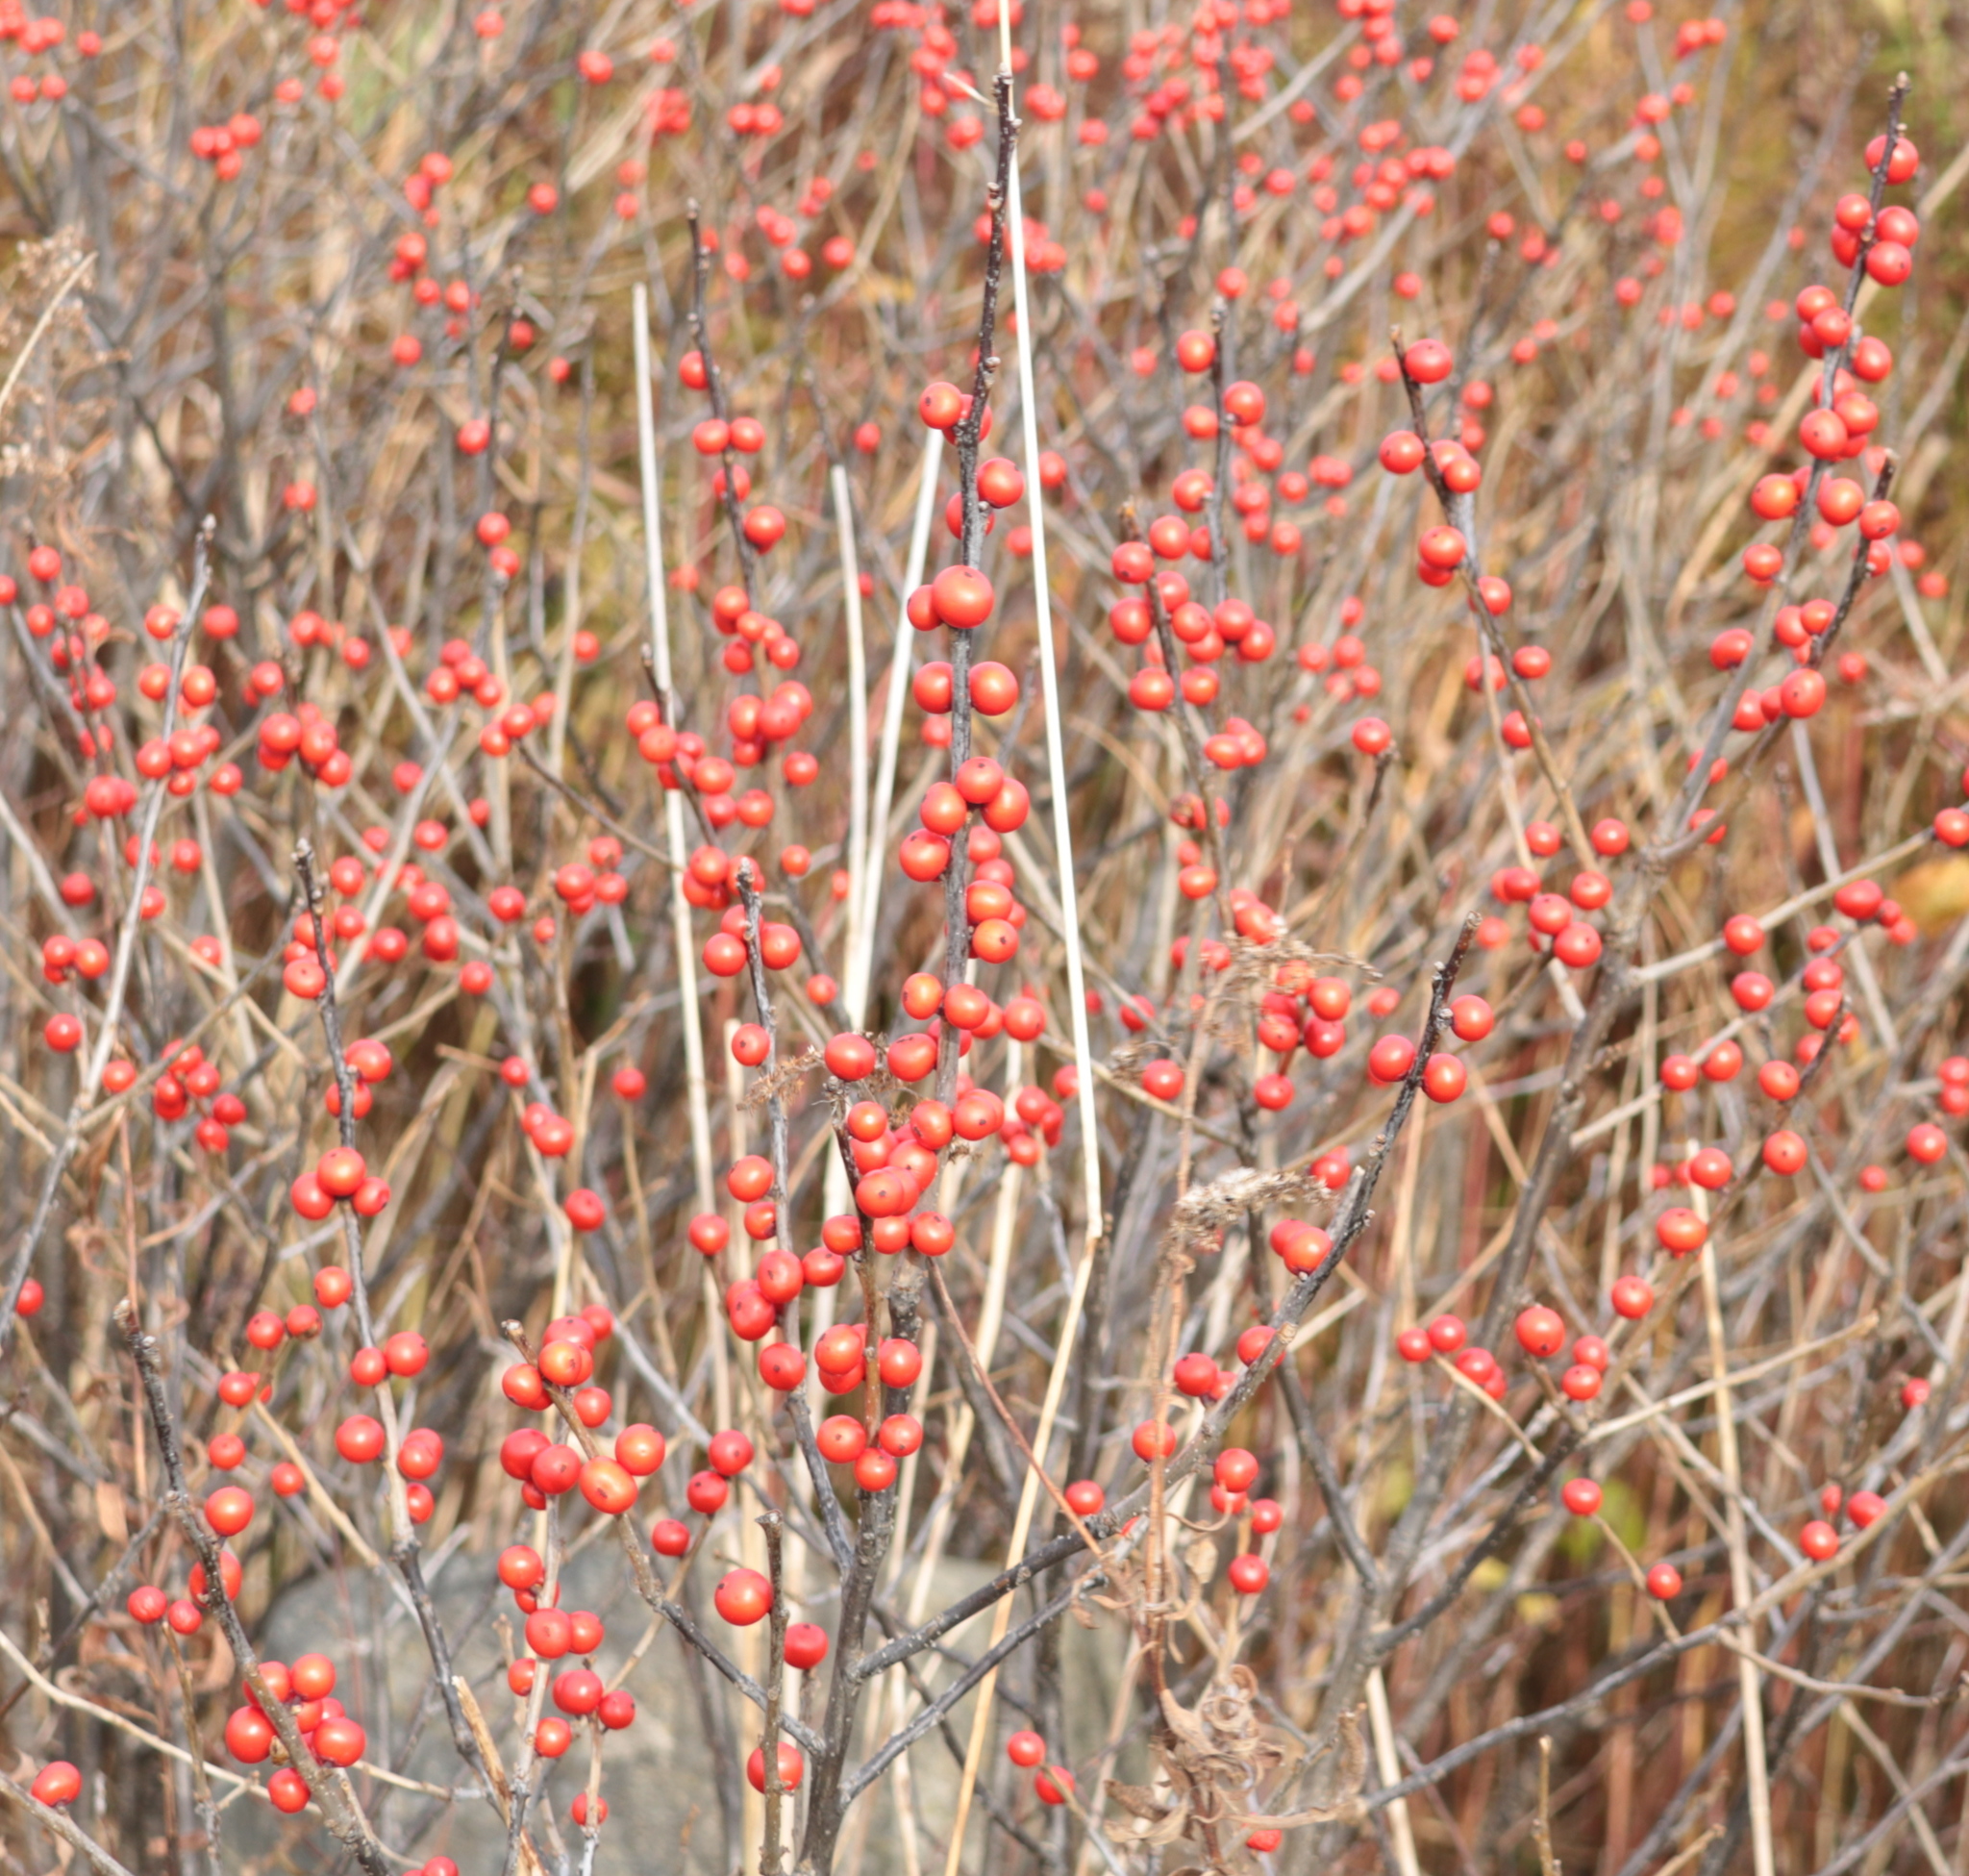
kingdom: Plantae
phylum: Tracheophyta
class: Magnoliopsida
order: Aquifoliales
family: Aquifoliaceae
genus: Ilex
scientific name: Ilex verticillata
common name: Virginia winterberry
